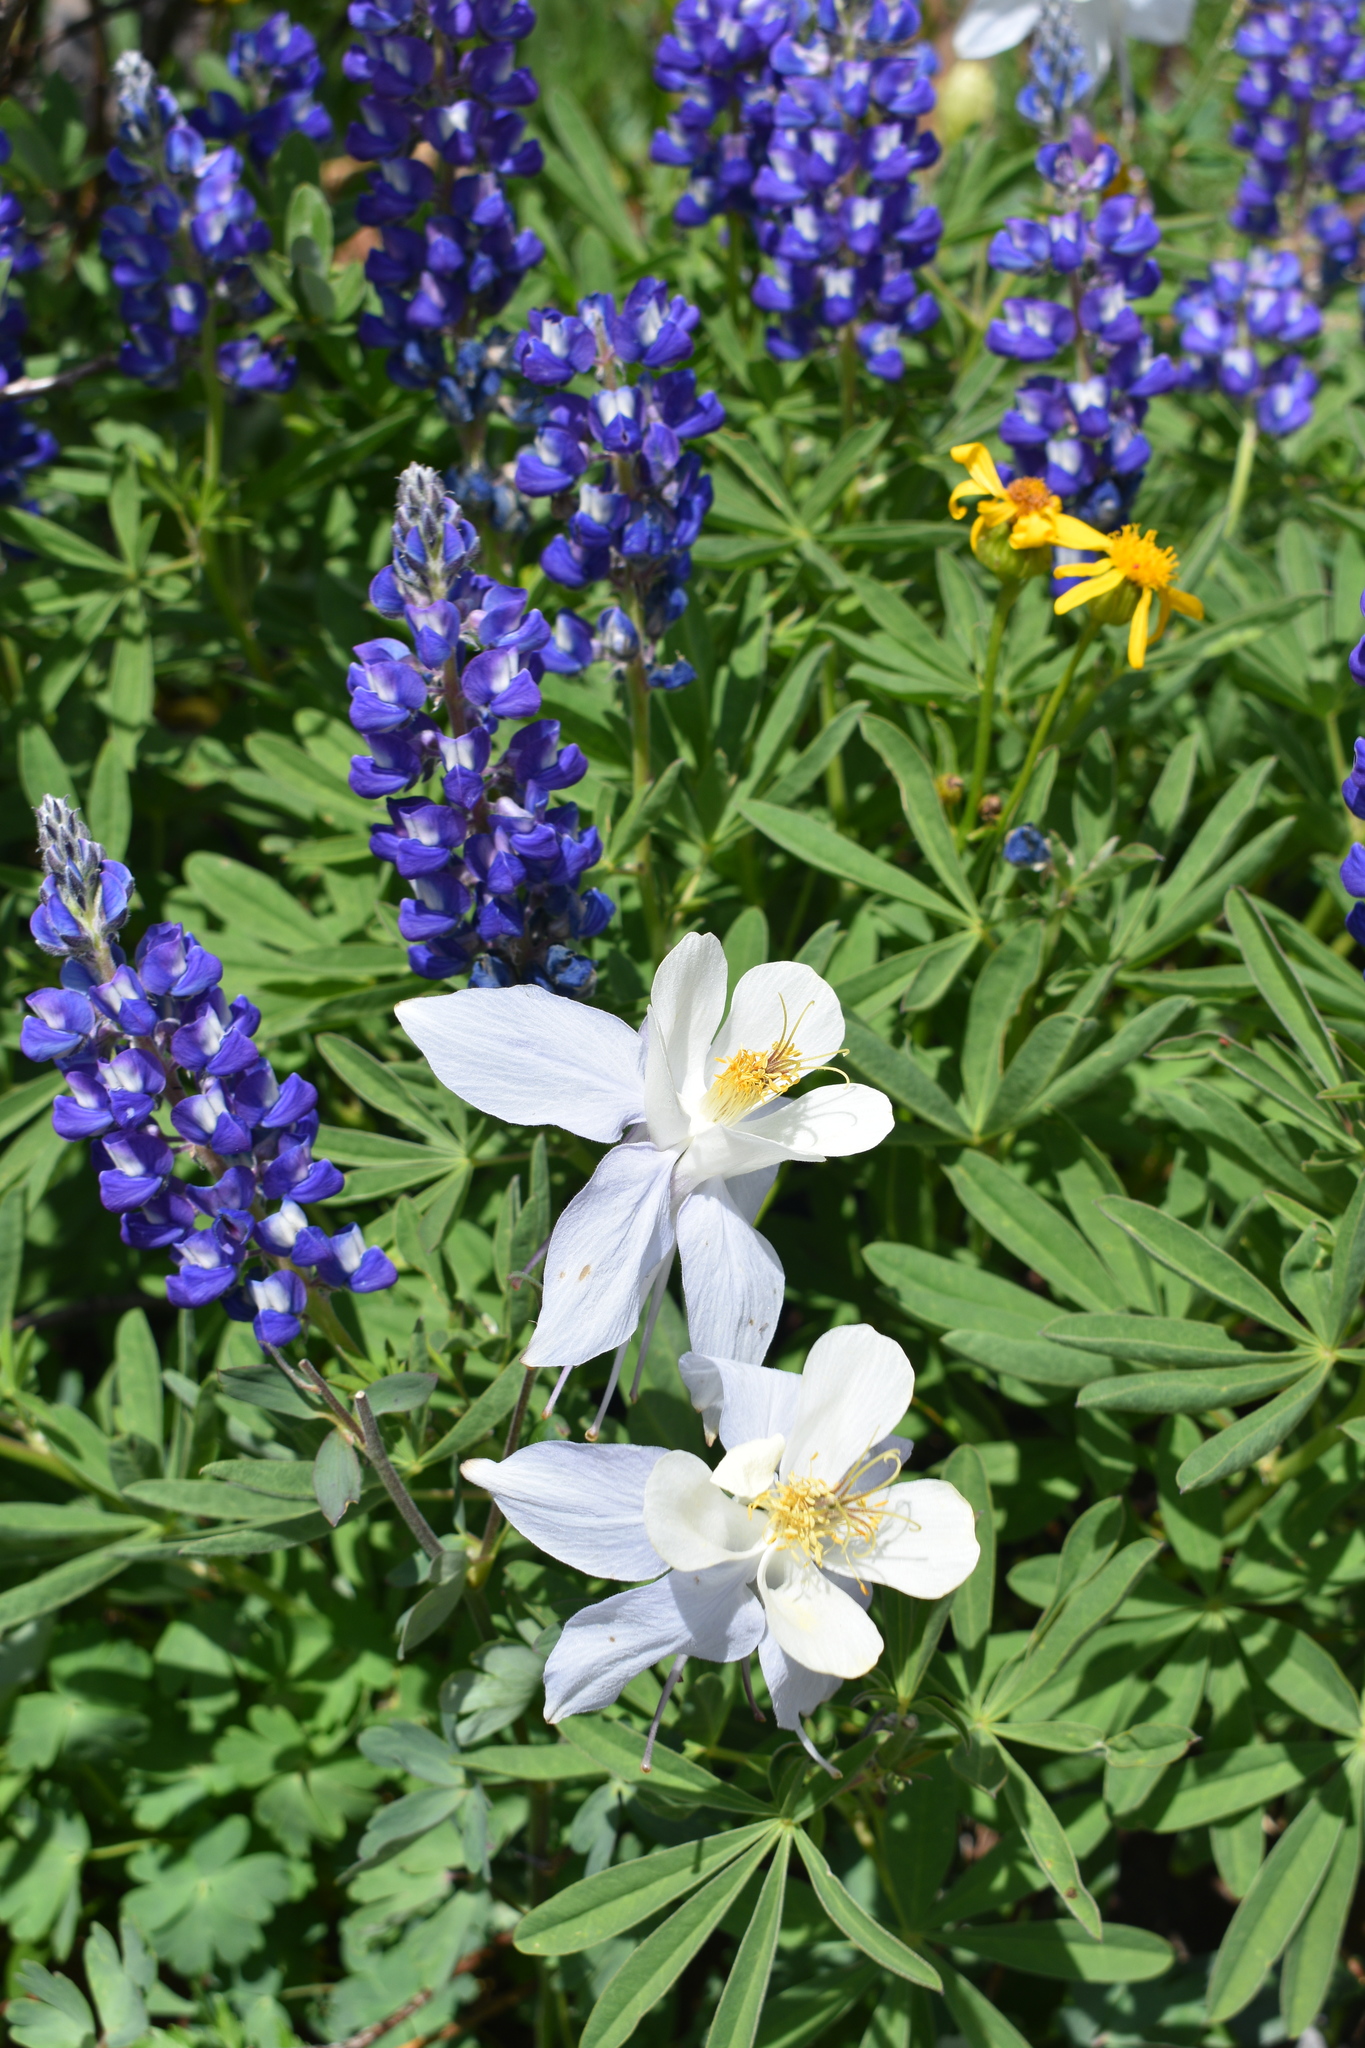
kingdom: Plantae
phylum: Tracheophyta
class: Magnoliopsida
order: Ranunculales
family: Ranunculaceae
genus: Aquilegia
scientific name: Aquilegia coerulea
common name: Rocky mountain columbine
